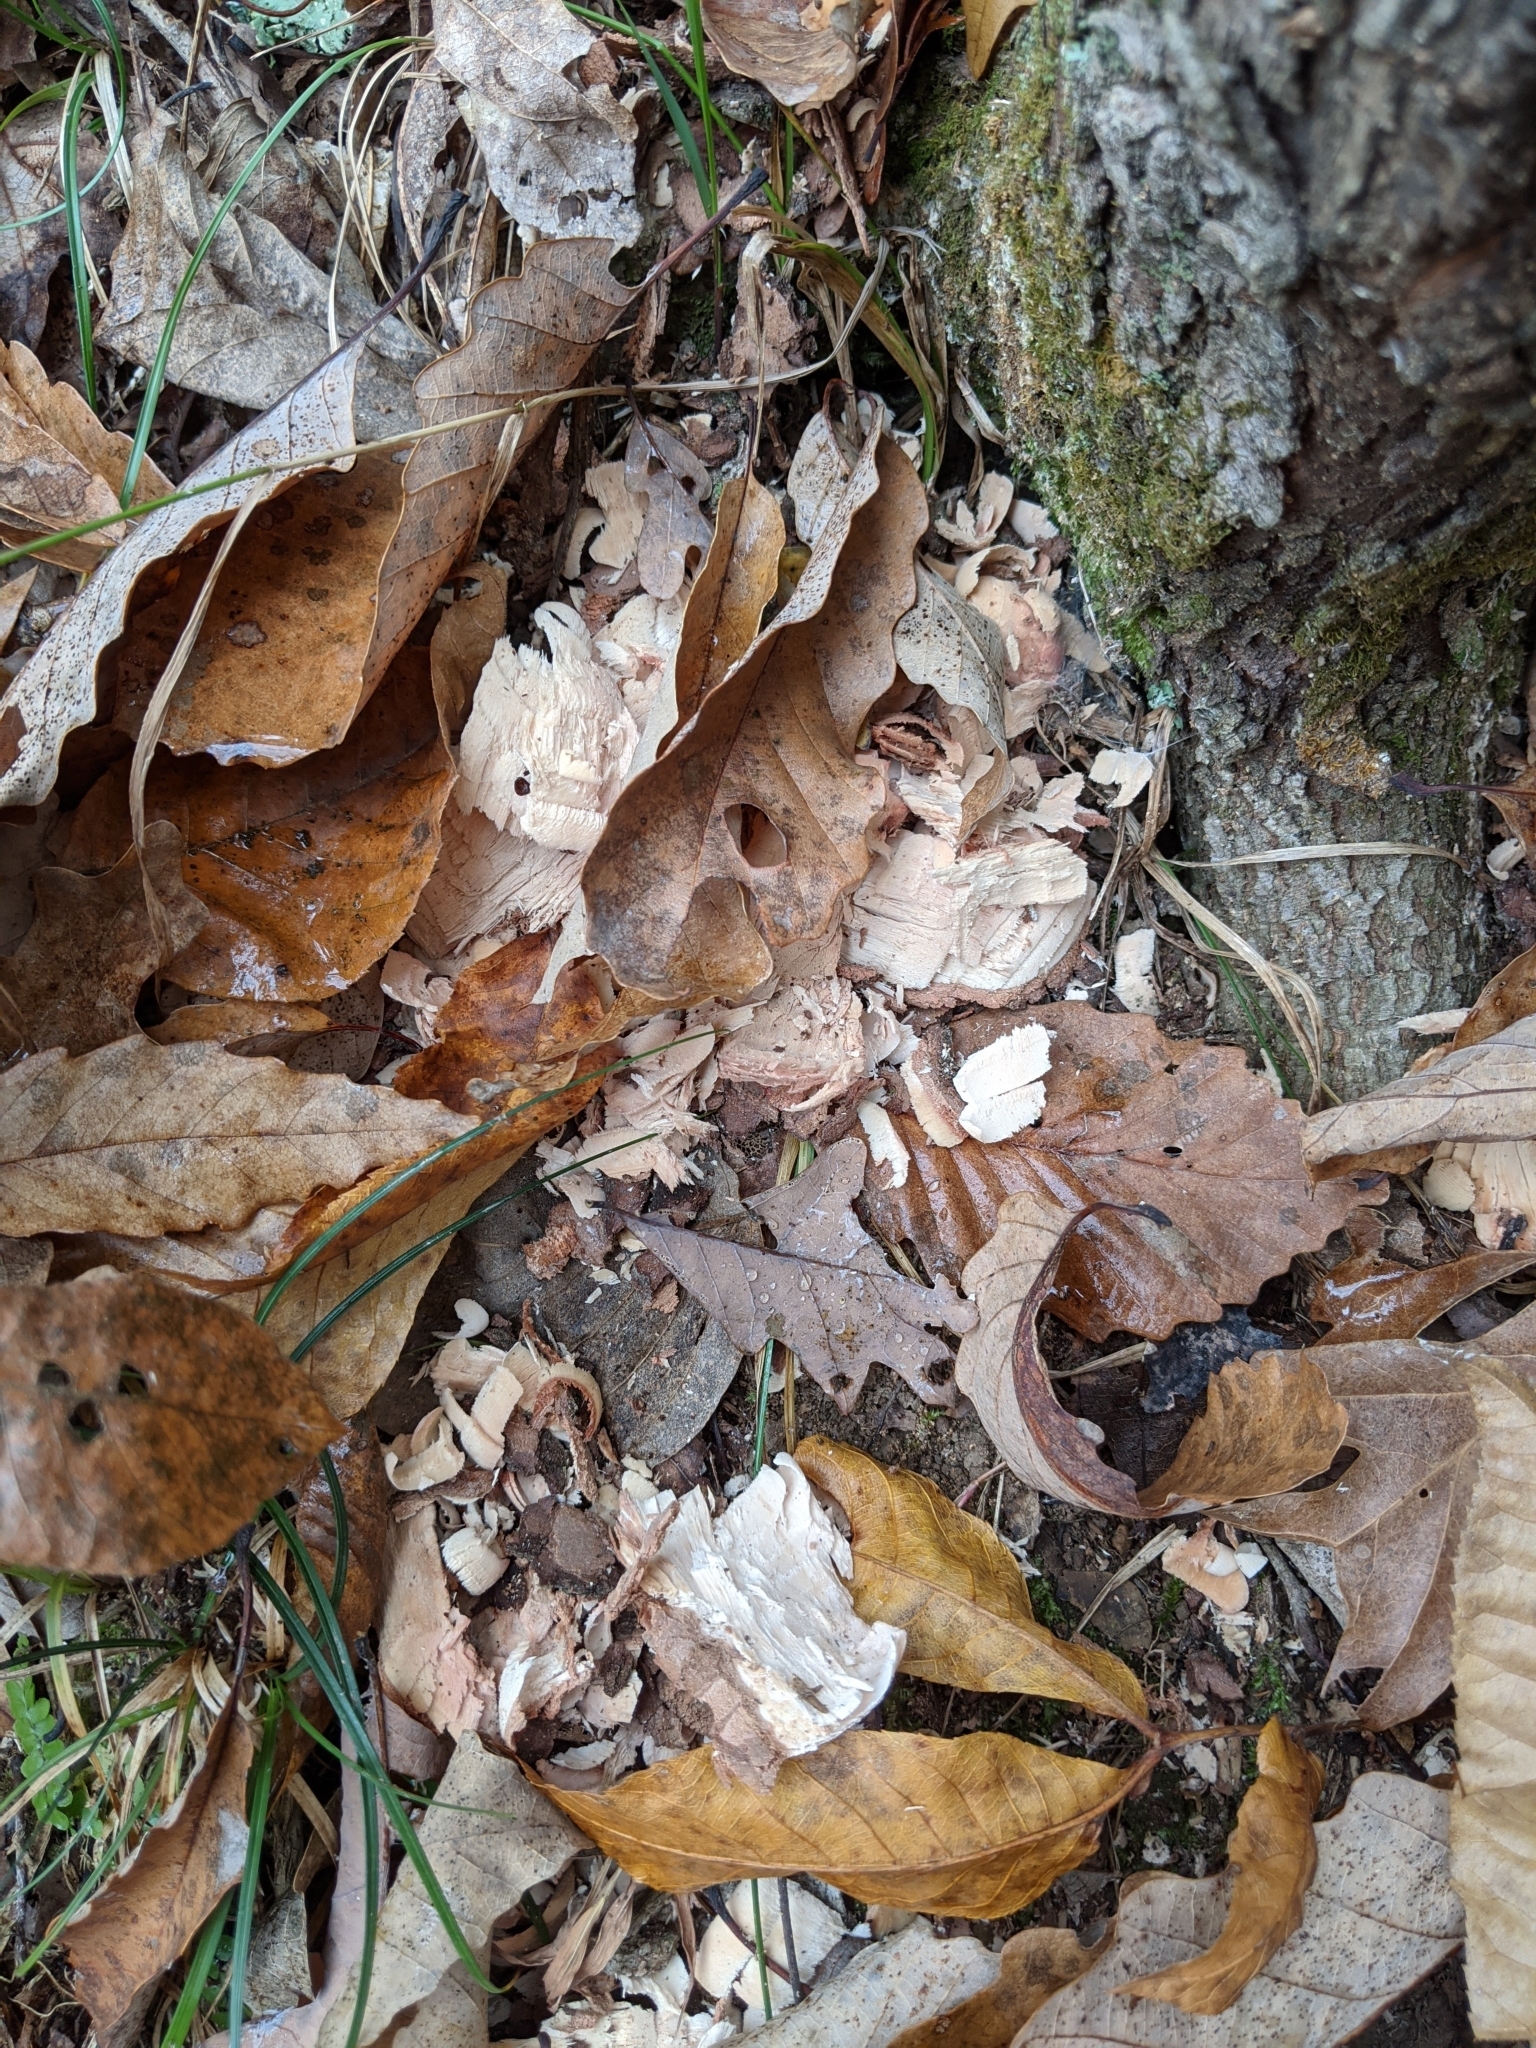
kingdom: Animalia
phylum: Chordata
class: Mammalia
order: Rodentia
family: Castoridae
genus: Castor
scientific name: Castor canadensis
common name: American beaver
